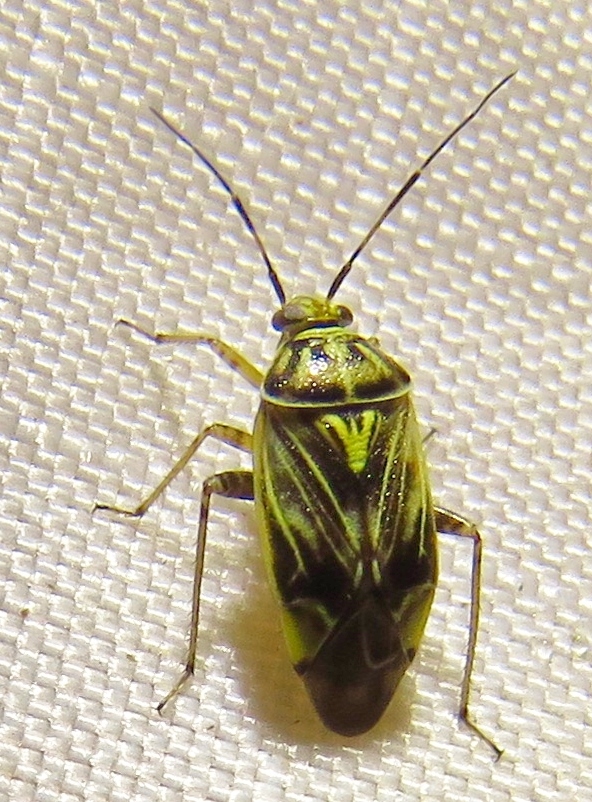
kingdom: Animalia
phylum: Arthropoda
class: Insecta
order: Hemiptera
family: Miridae
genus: Lygus
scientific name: Lygus lineolaris
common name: North american tarnished plant bug
